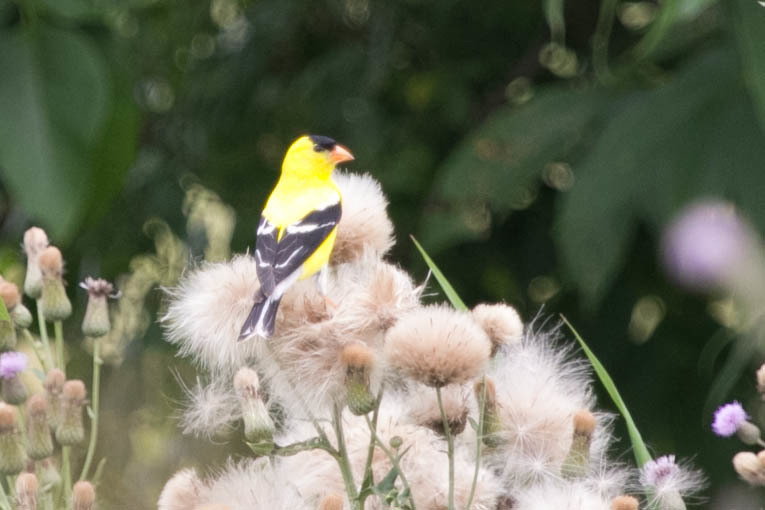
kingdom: Animalia
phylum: Chordata
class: Aves
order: Passeriformes
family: Fringillidae
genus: Spinus
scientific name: Spinus tristis
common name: American goldfinch
